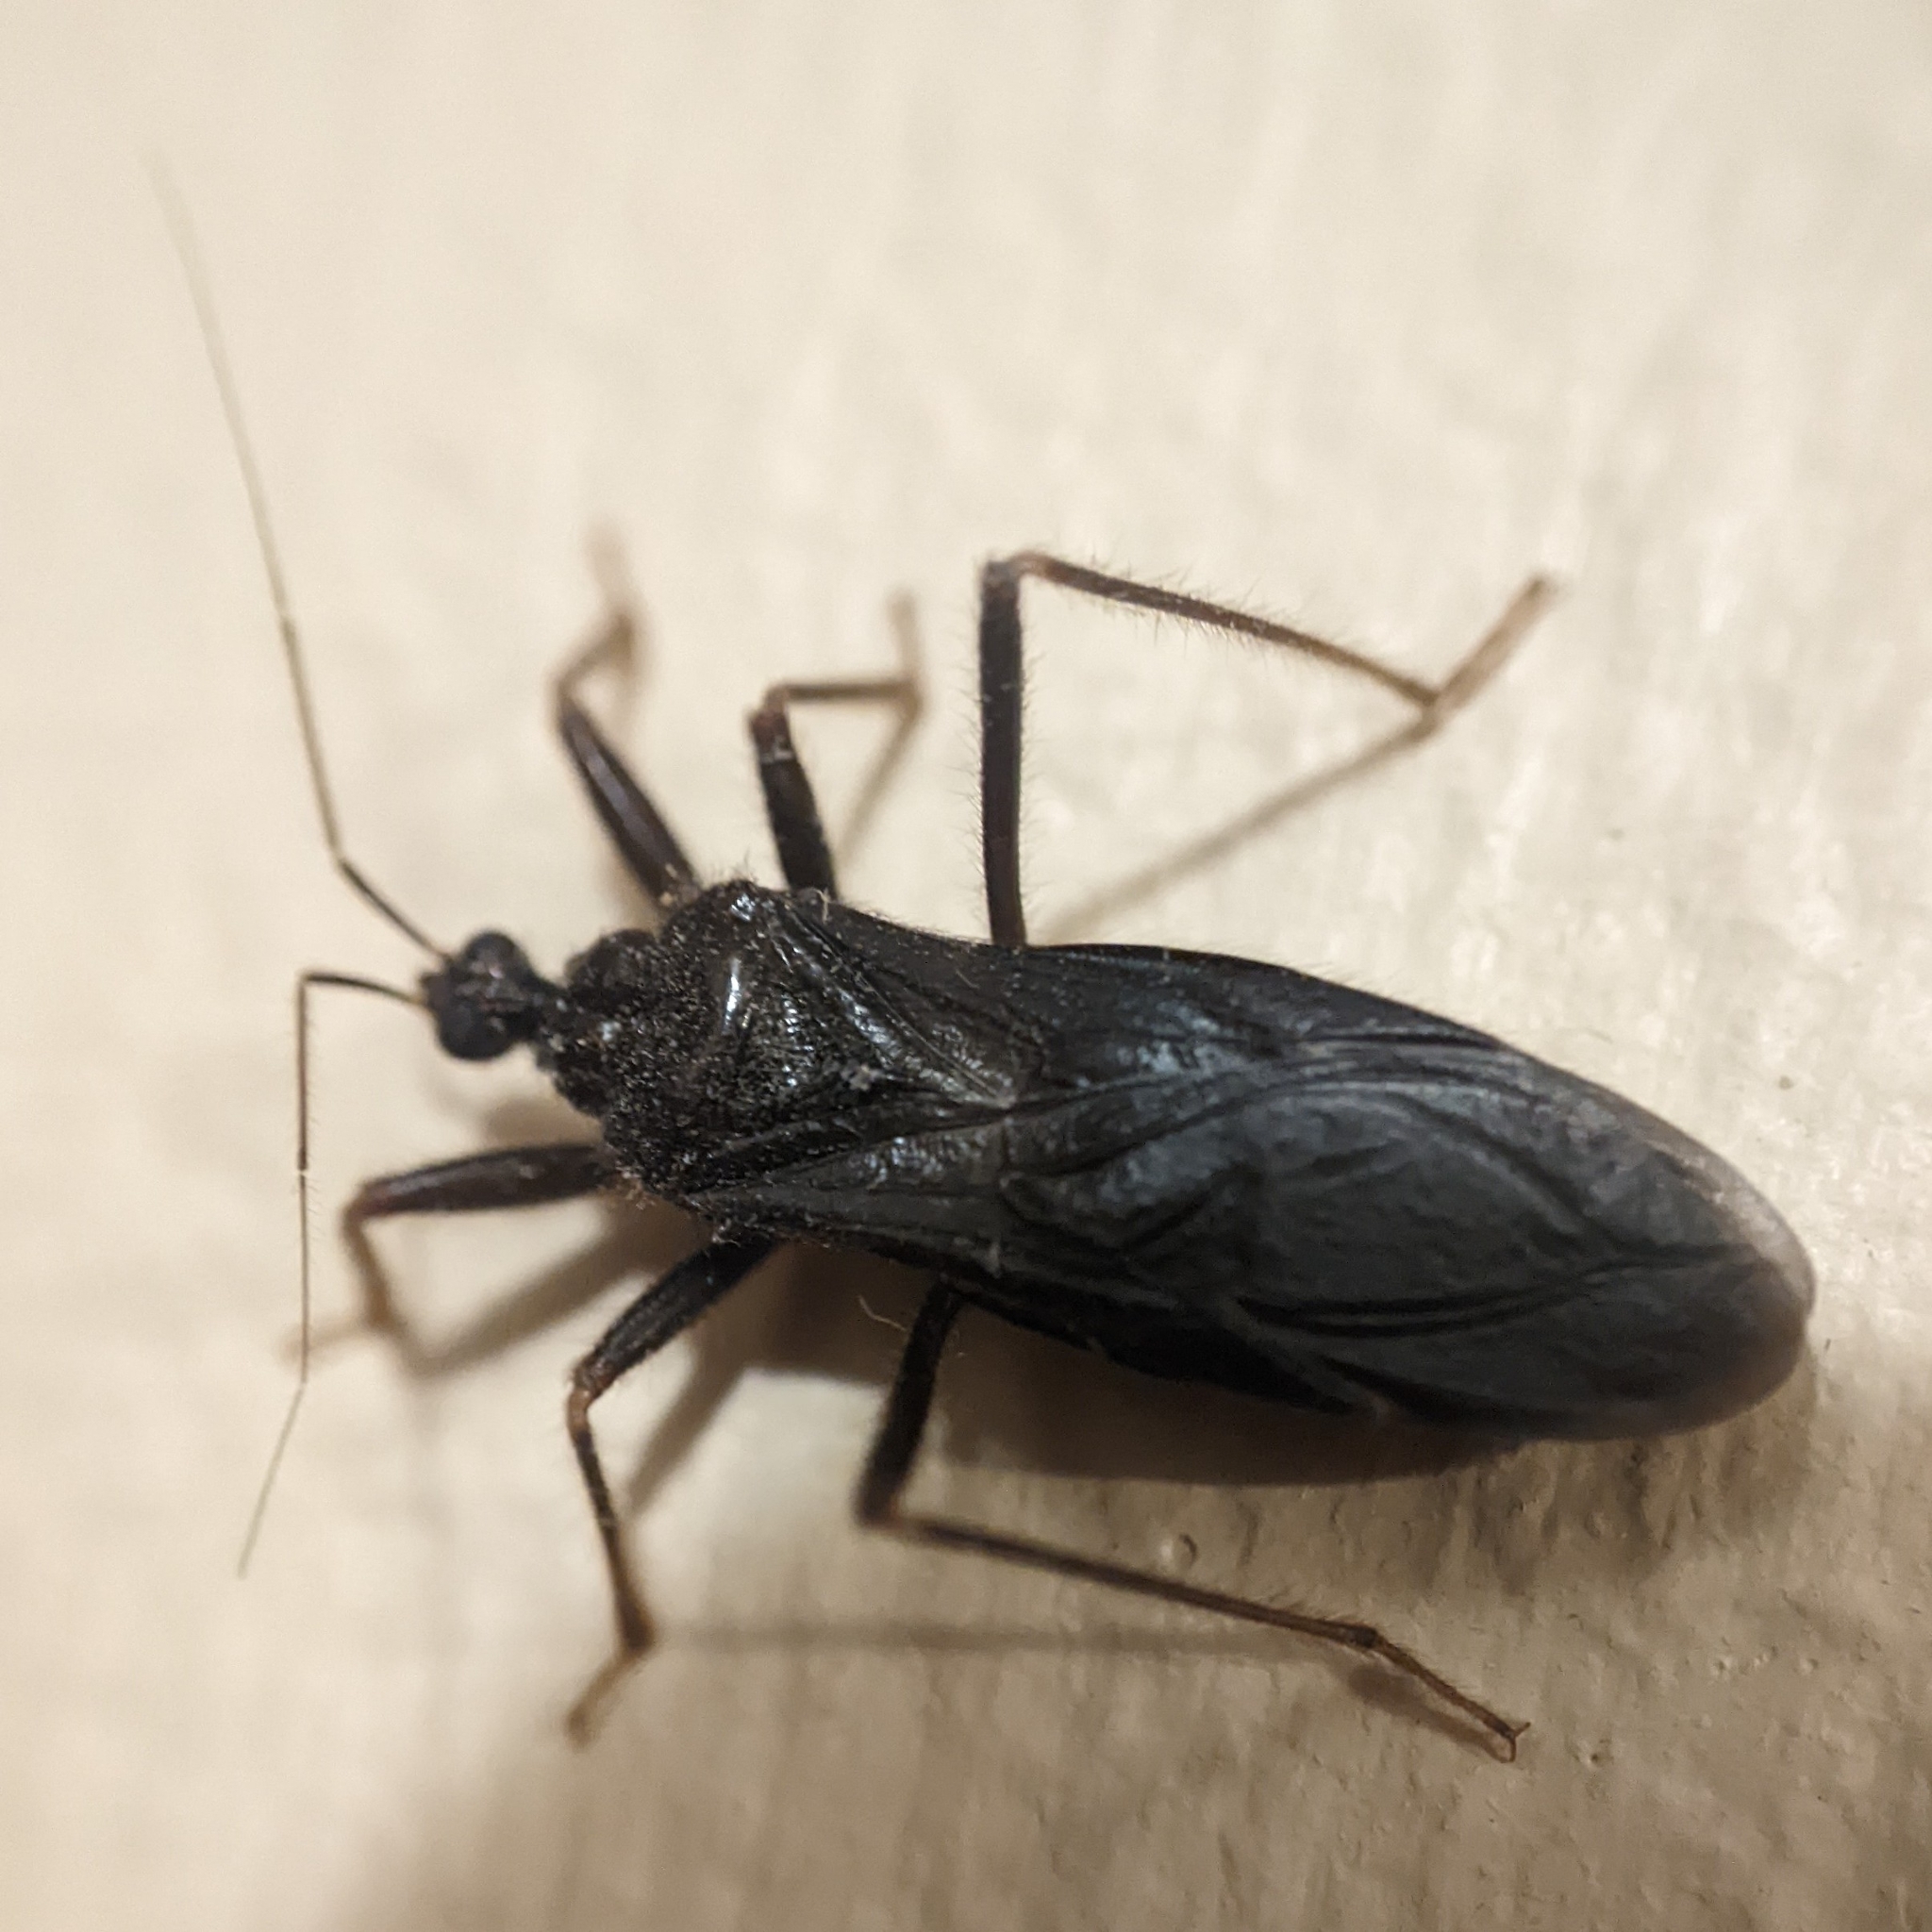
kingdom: Animalia
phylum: Arthropoda
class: Insecta
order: Hemiptera
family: Reduviidae
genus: Reduvius
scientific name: Reduvius personatus
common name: Masked hunter
